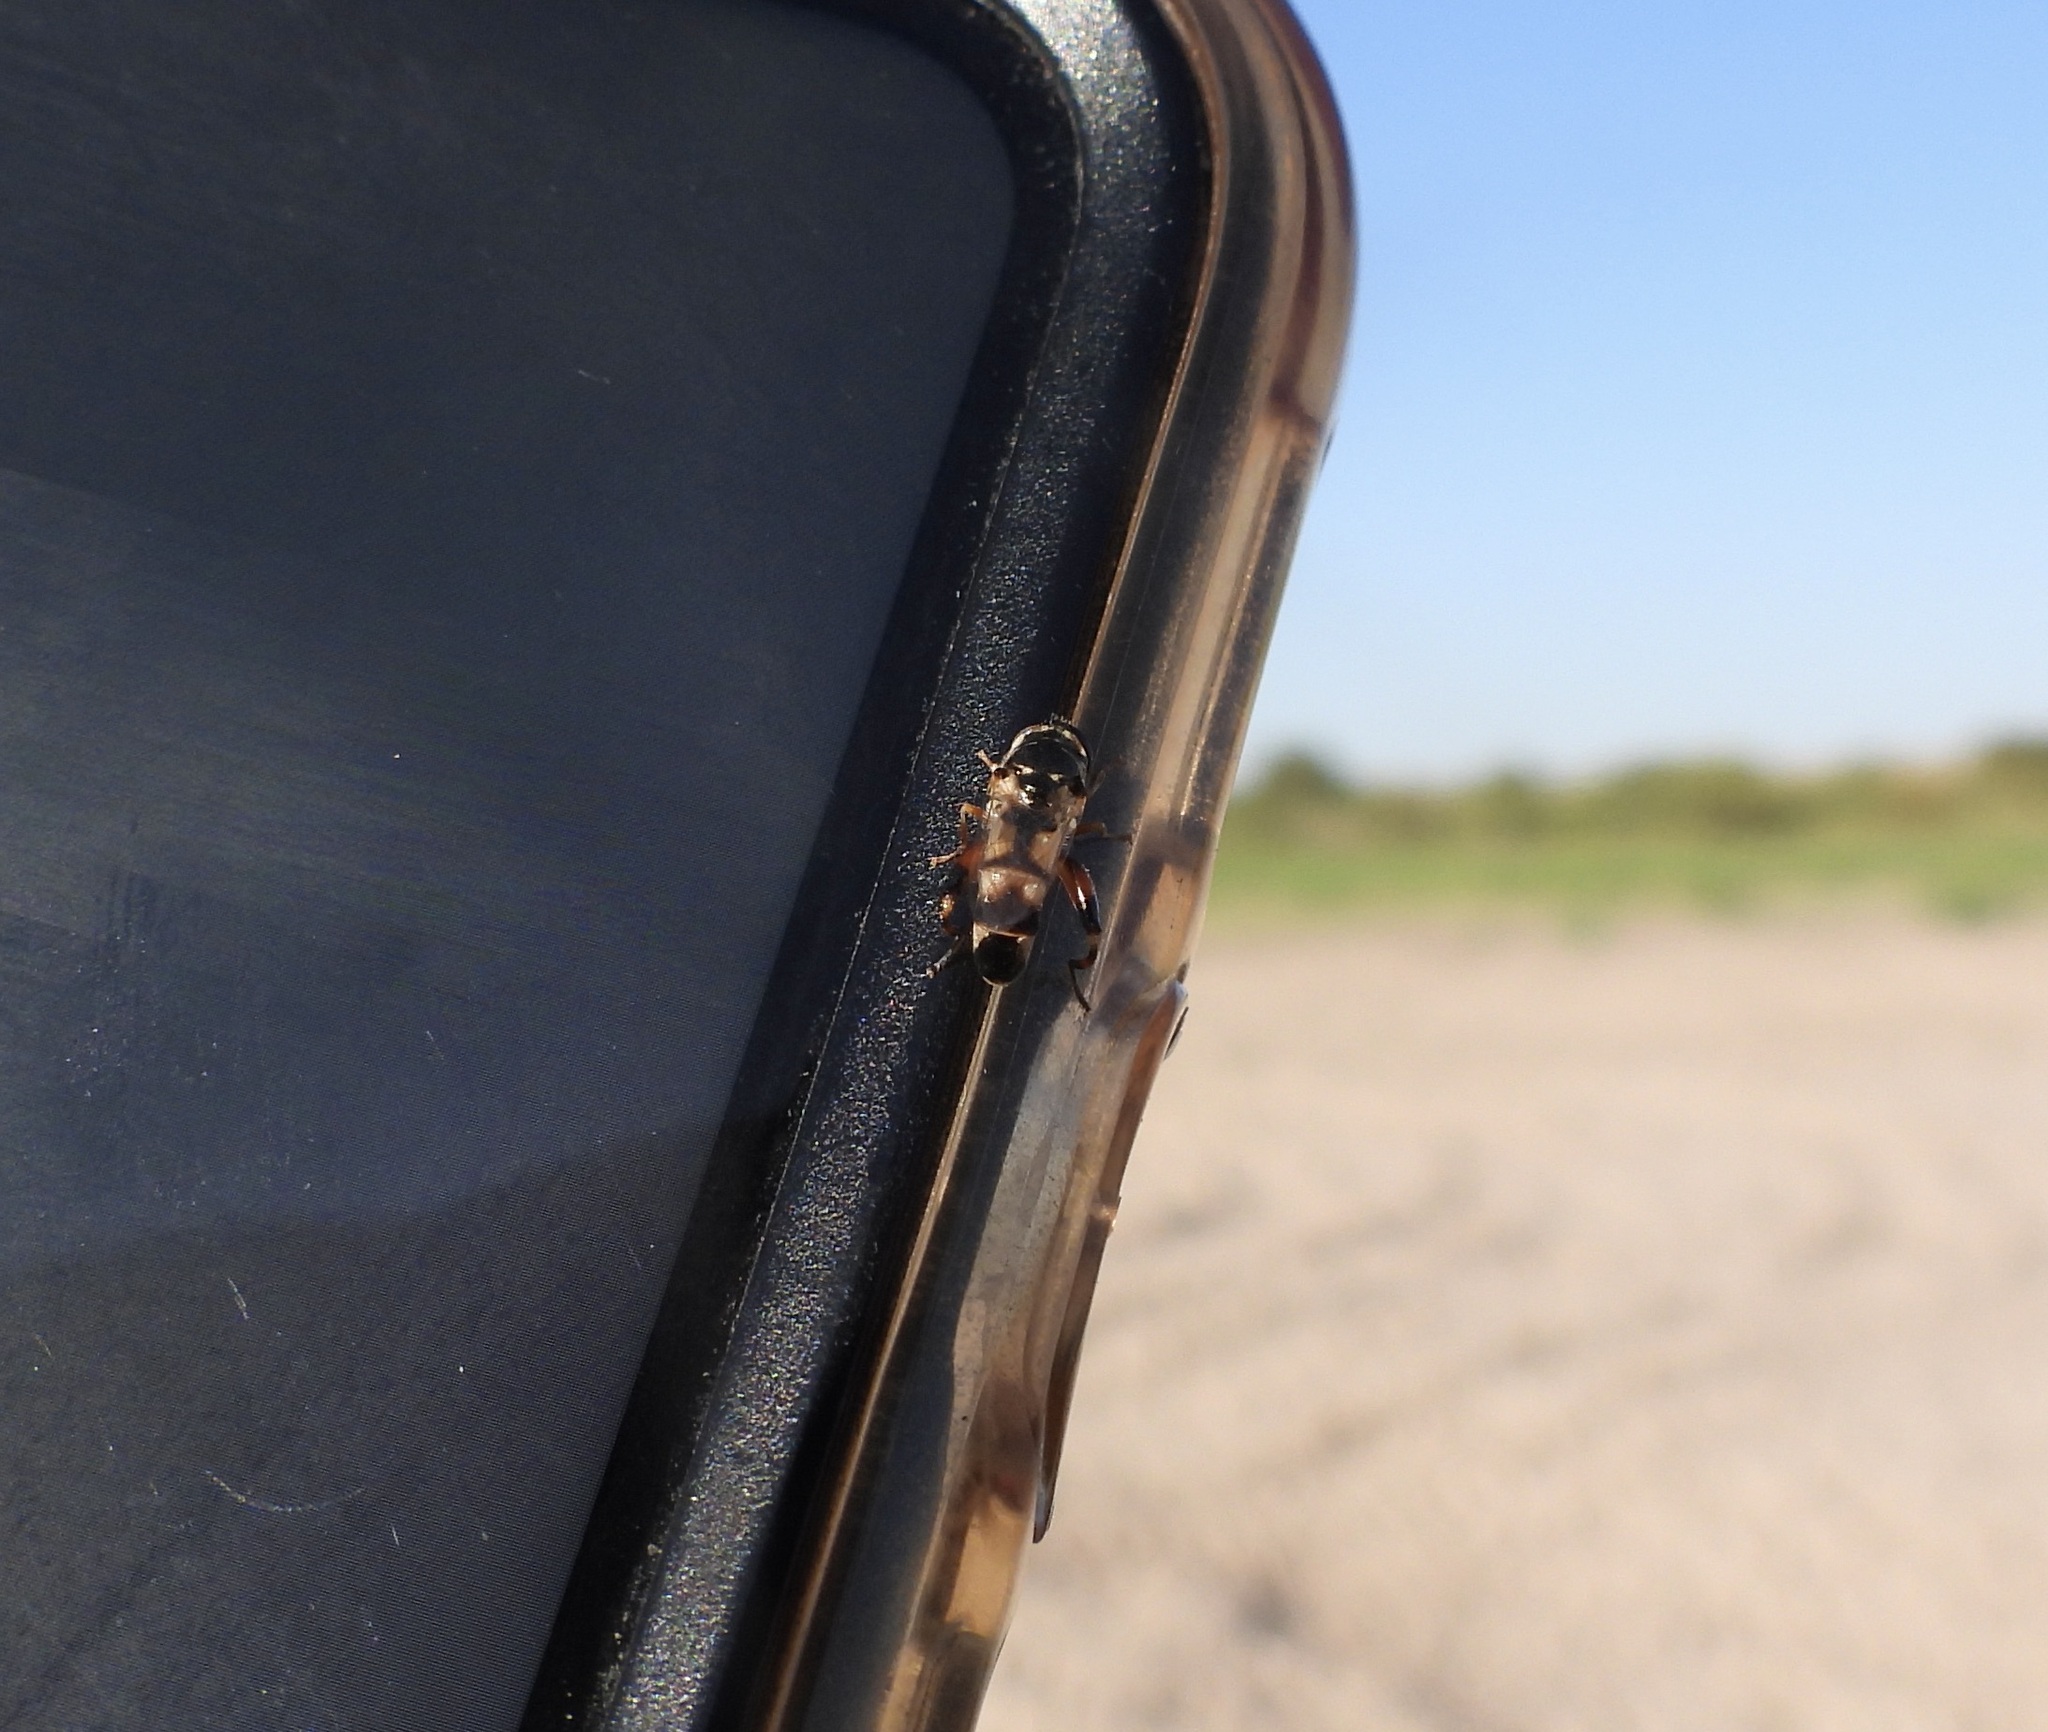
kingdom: Animalia
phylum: Arthropoda
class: Insecta
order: Diptera
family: Syrphidae
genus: Syritta
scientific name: Syritta flaviventris
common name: Syrphid fly
